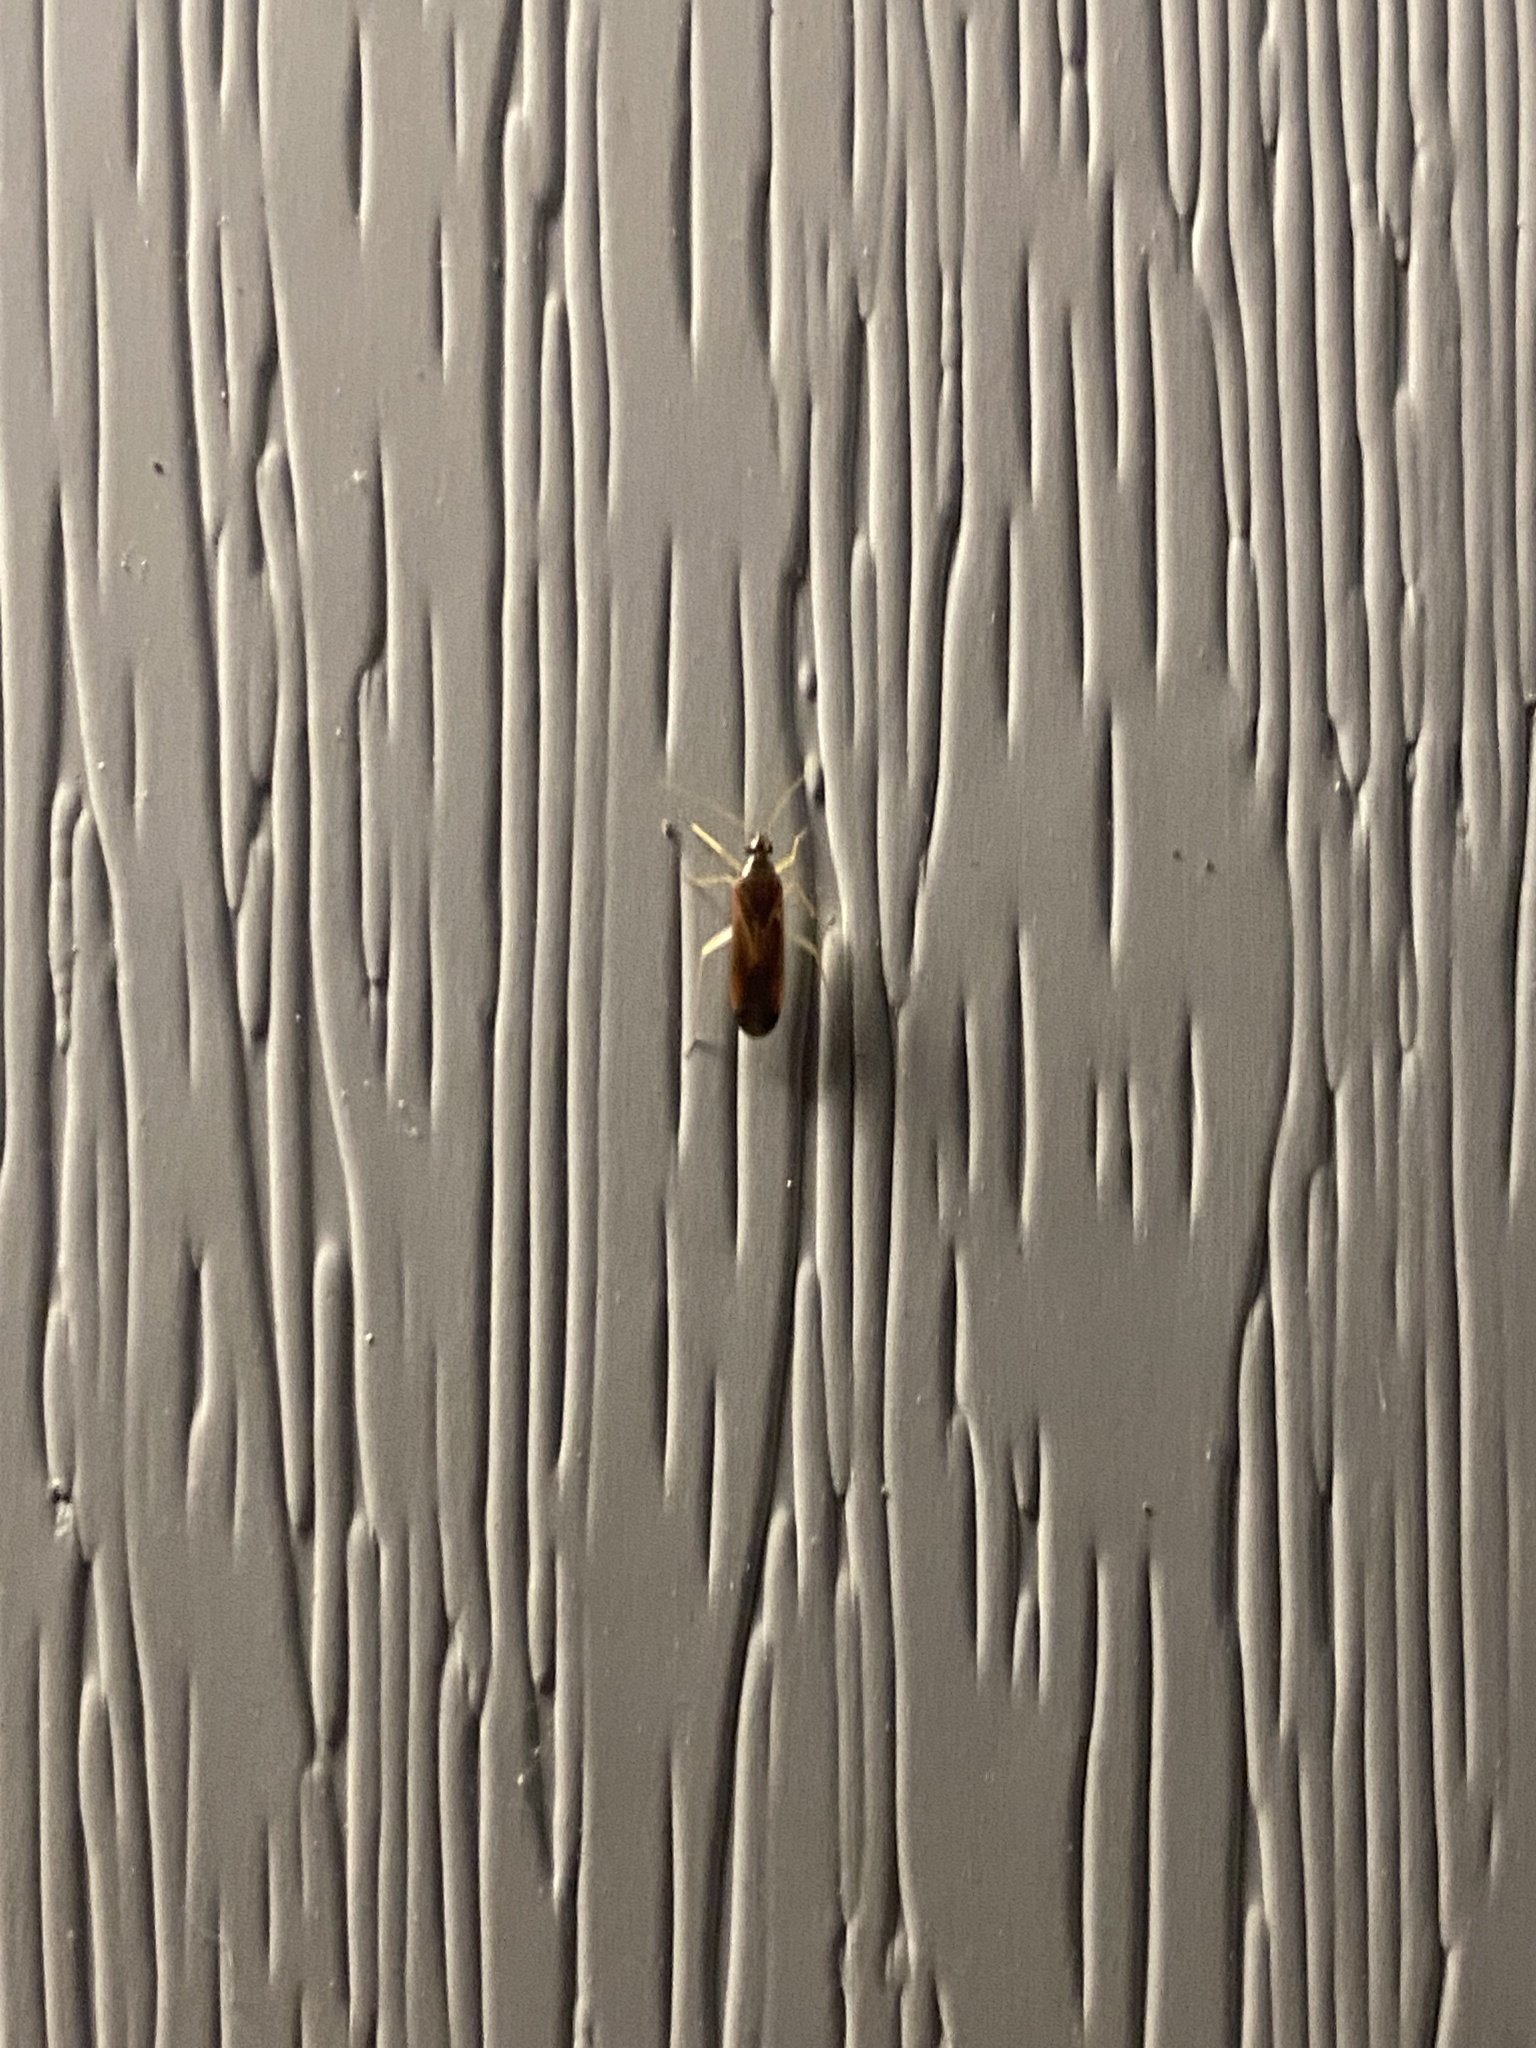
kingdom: Animalia
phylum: Arthropoda
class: Insecta
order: Hemiptera
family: Miridae
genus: Phylus
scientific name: Phylus coryli
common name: Plant bug
